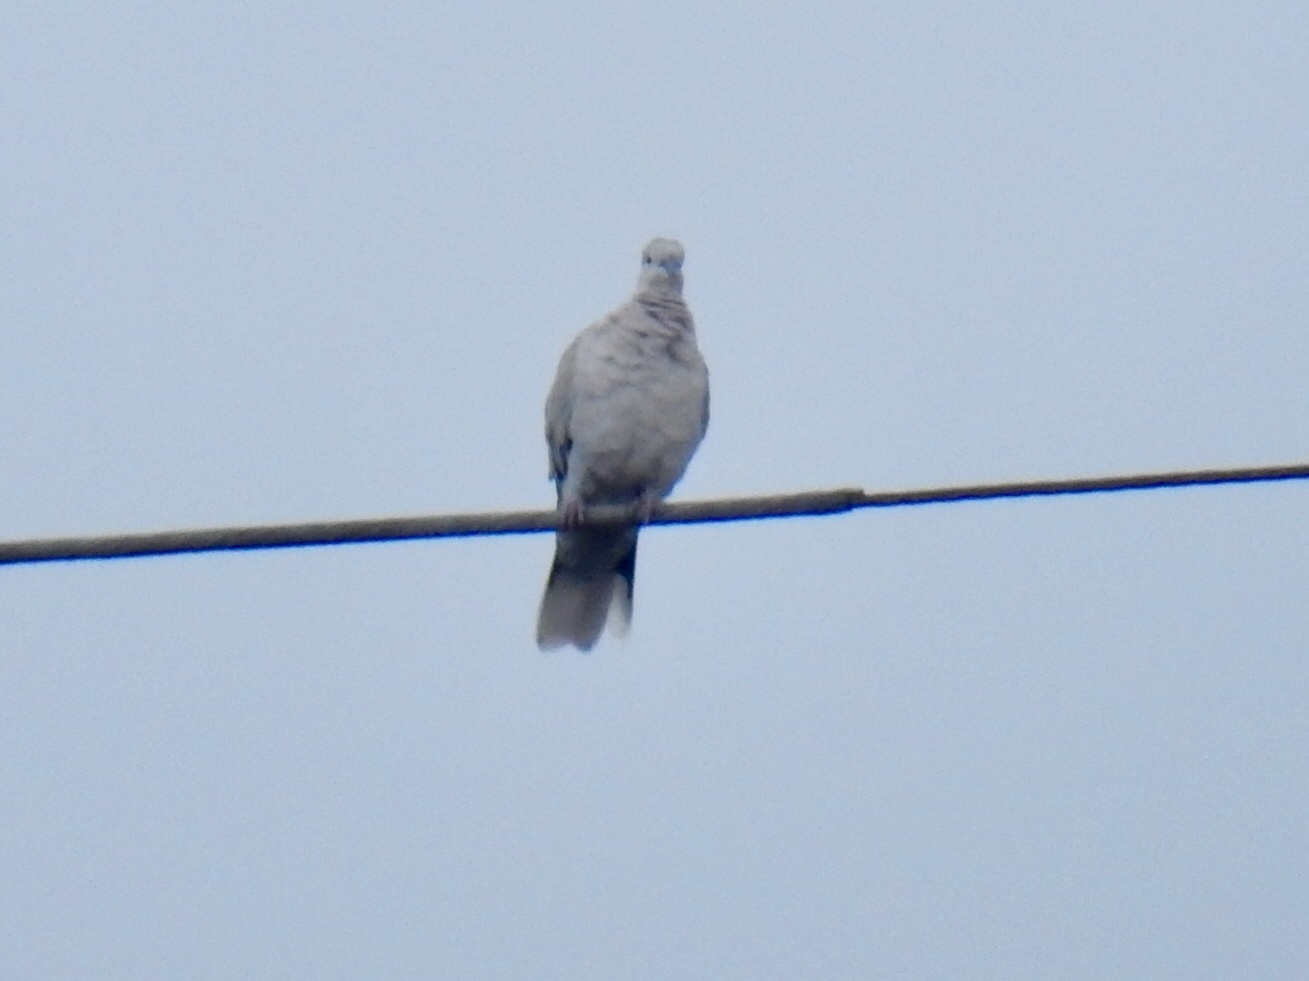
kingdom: Animalia
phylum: Chordata
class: Aves
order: Columbiformes
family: Columbidae
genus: Streptopelia
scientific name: Streptopelia decaocto
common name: Eurasian collared dove
